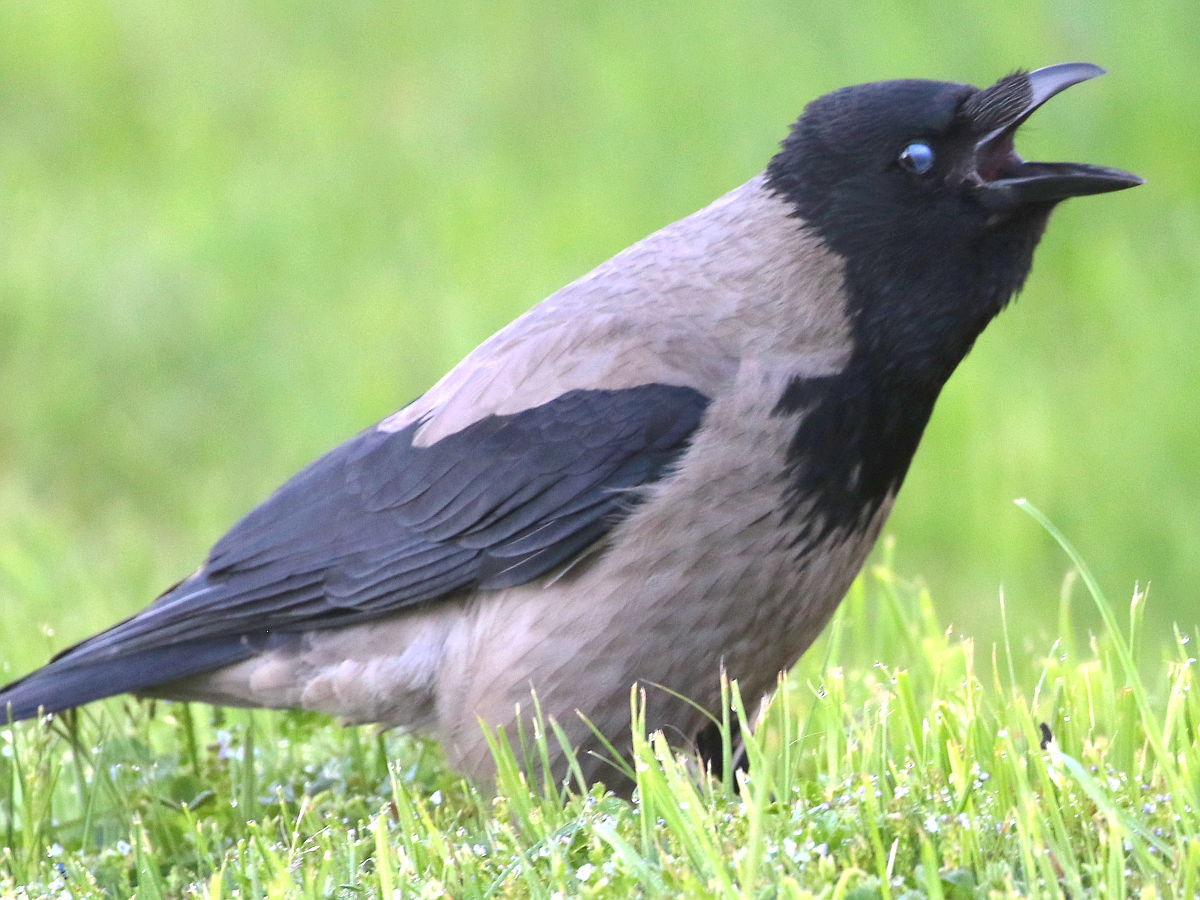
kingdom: Animalia
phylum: Chordata
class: Aves
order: Passeriformes
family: Corvidae
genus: Corvus
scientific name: Corvus cornix
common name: Hooded crow
